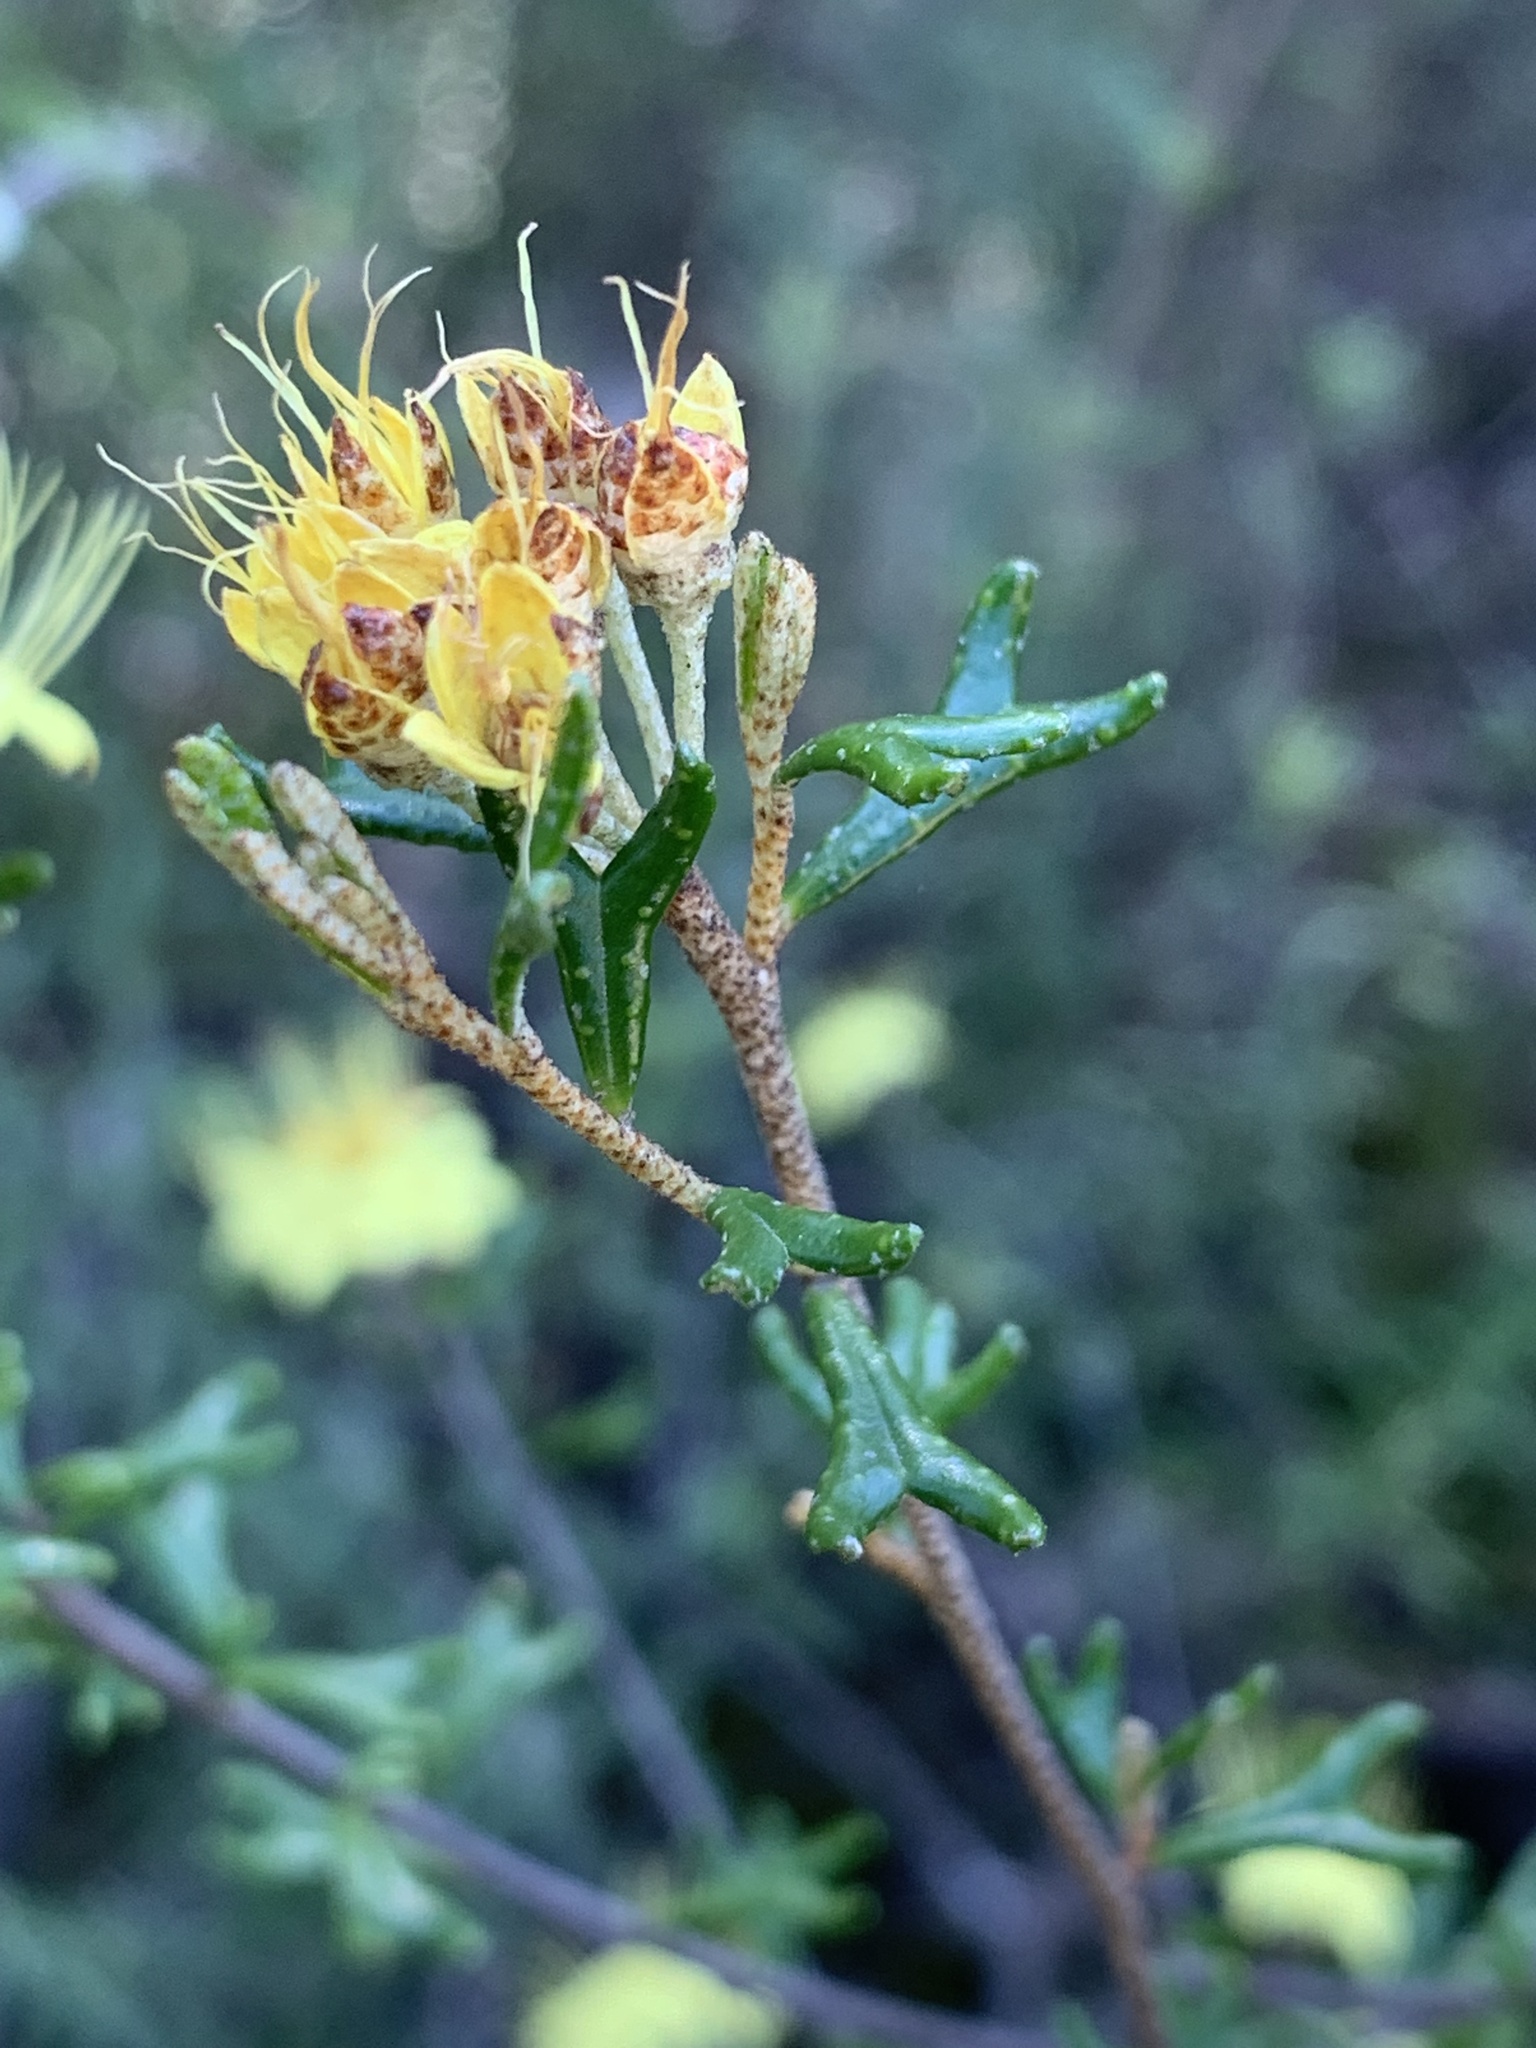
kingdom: Plantae
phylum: Tracheophyta
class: Magnoliopsida
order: Sapindales
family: Rutaceae
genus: Phebalium
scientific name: Phebalium bifidum
